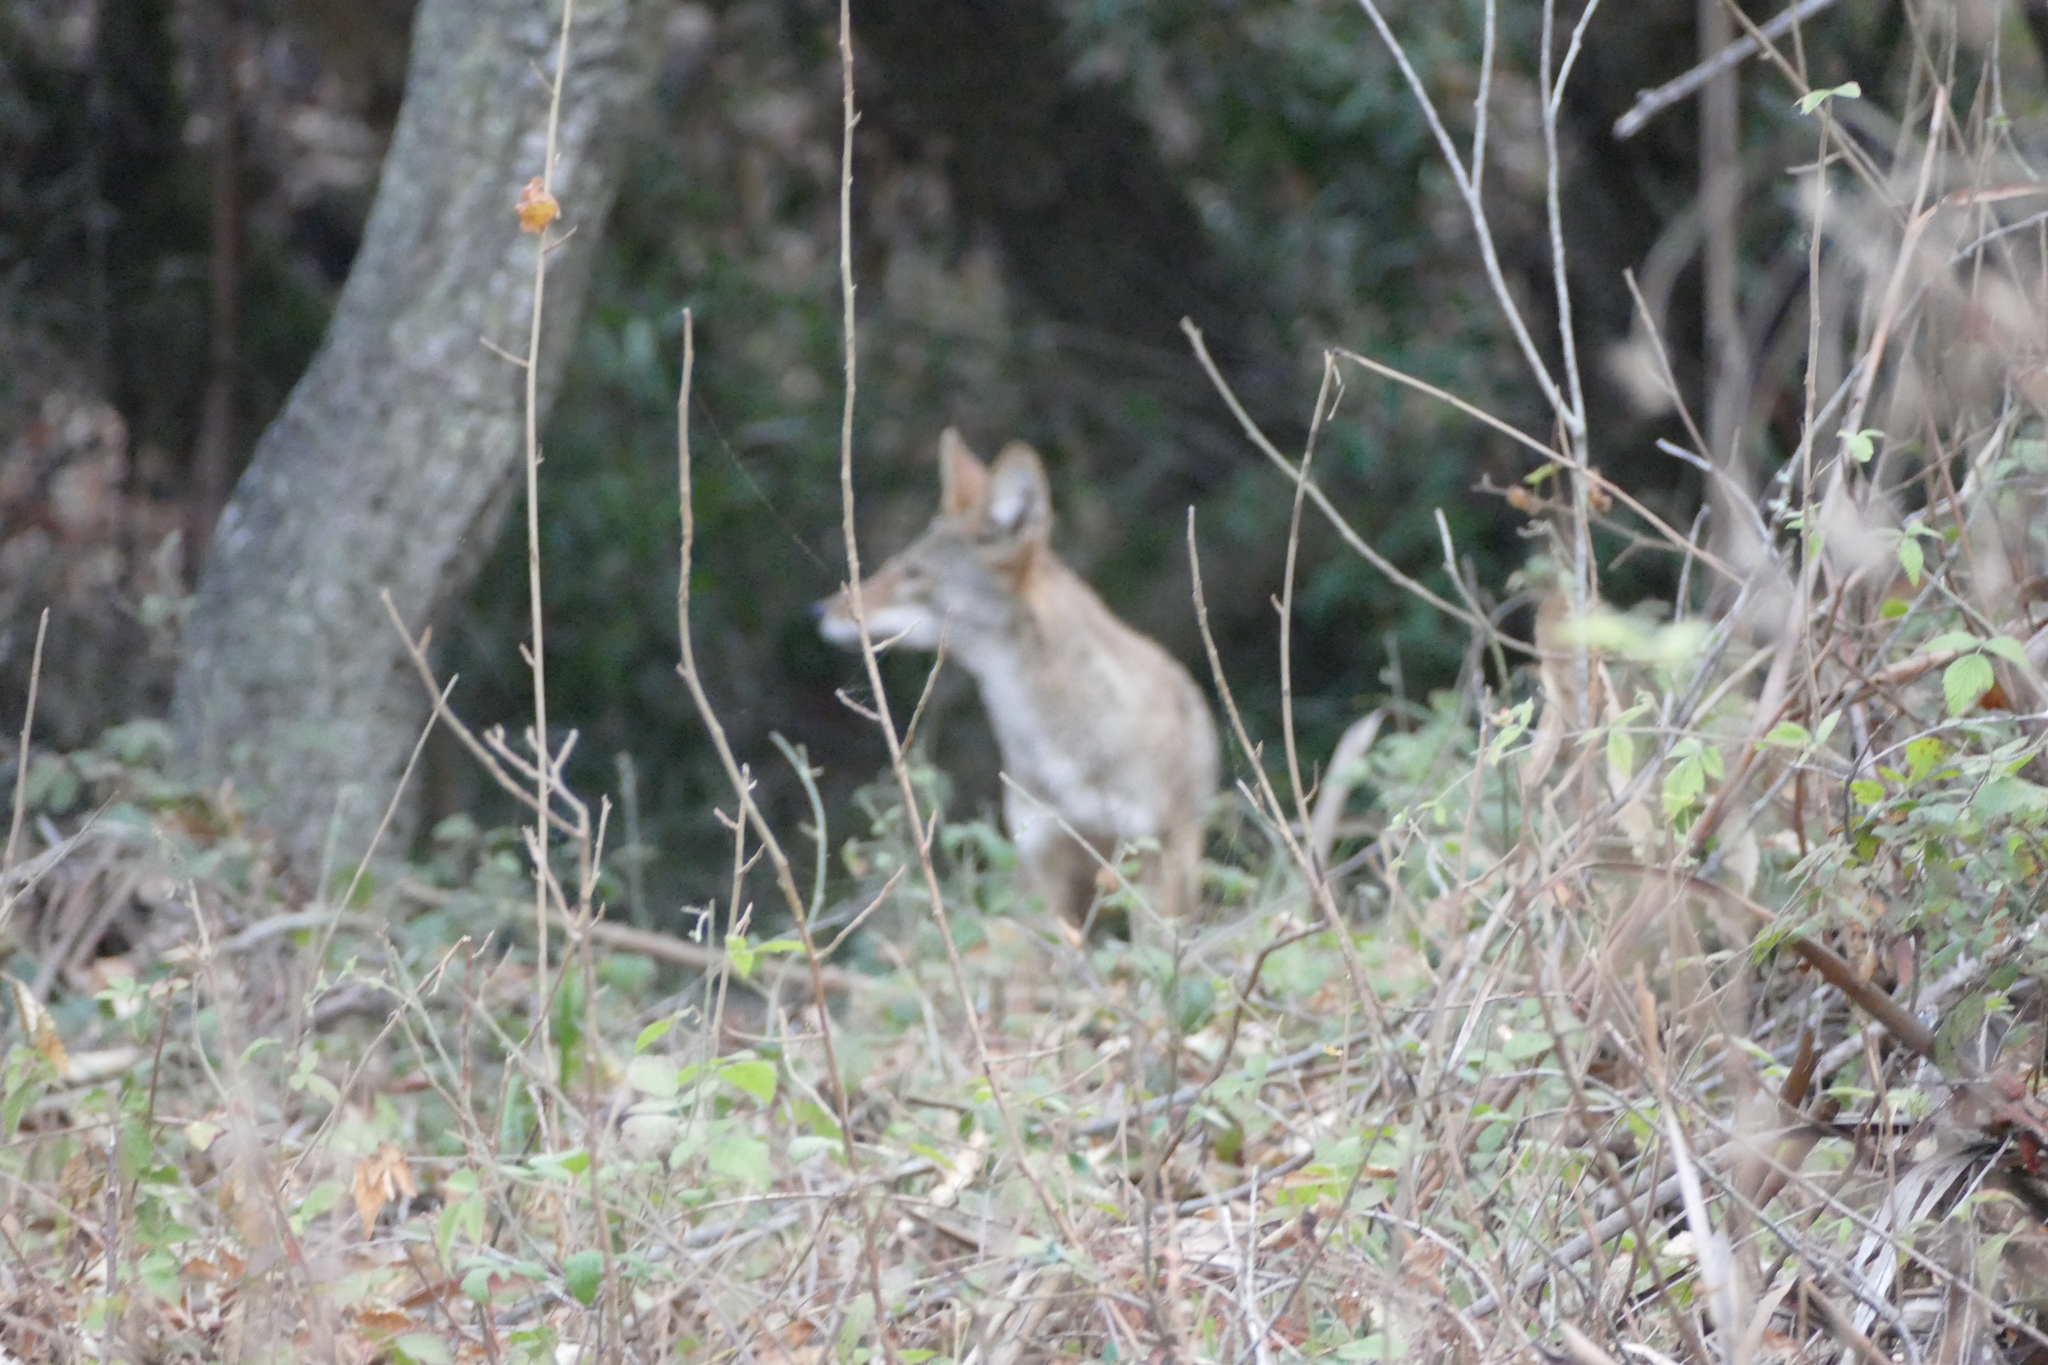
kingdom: Animalia
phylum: Chordata
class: Mammalia
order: Carnivora
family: Canidae
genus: Canis
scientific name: Canis latrans
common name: Coyote
